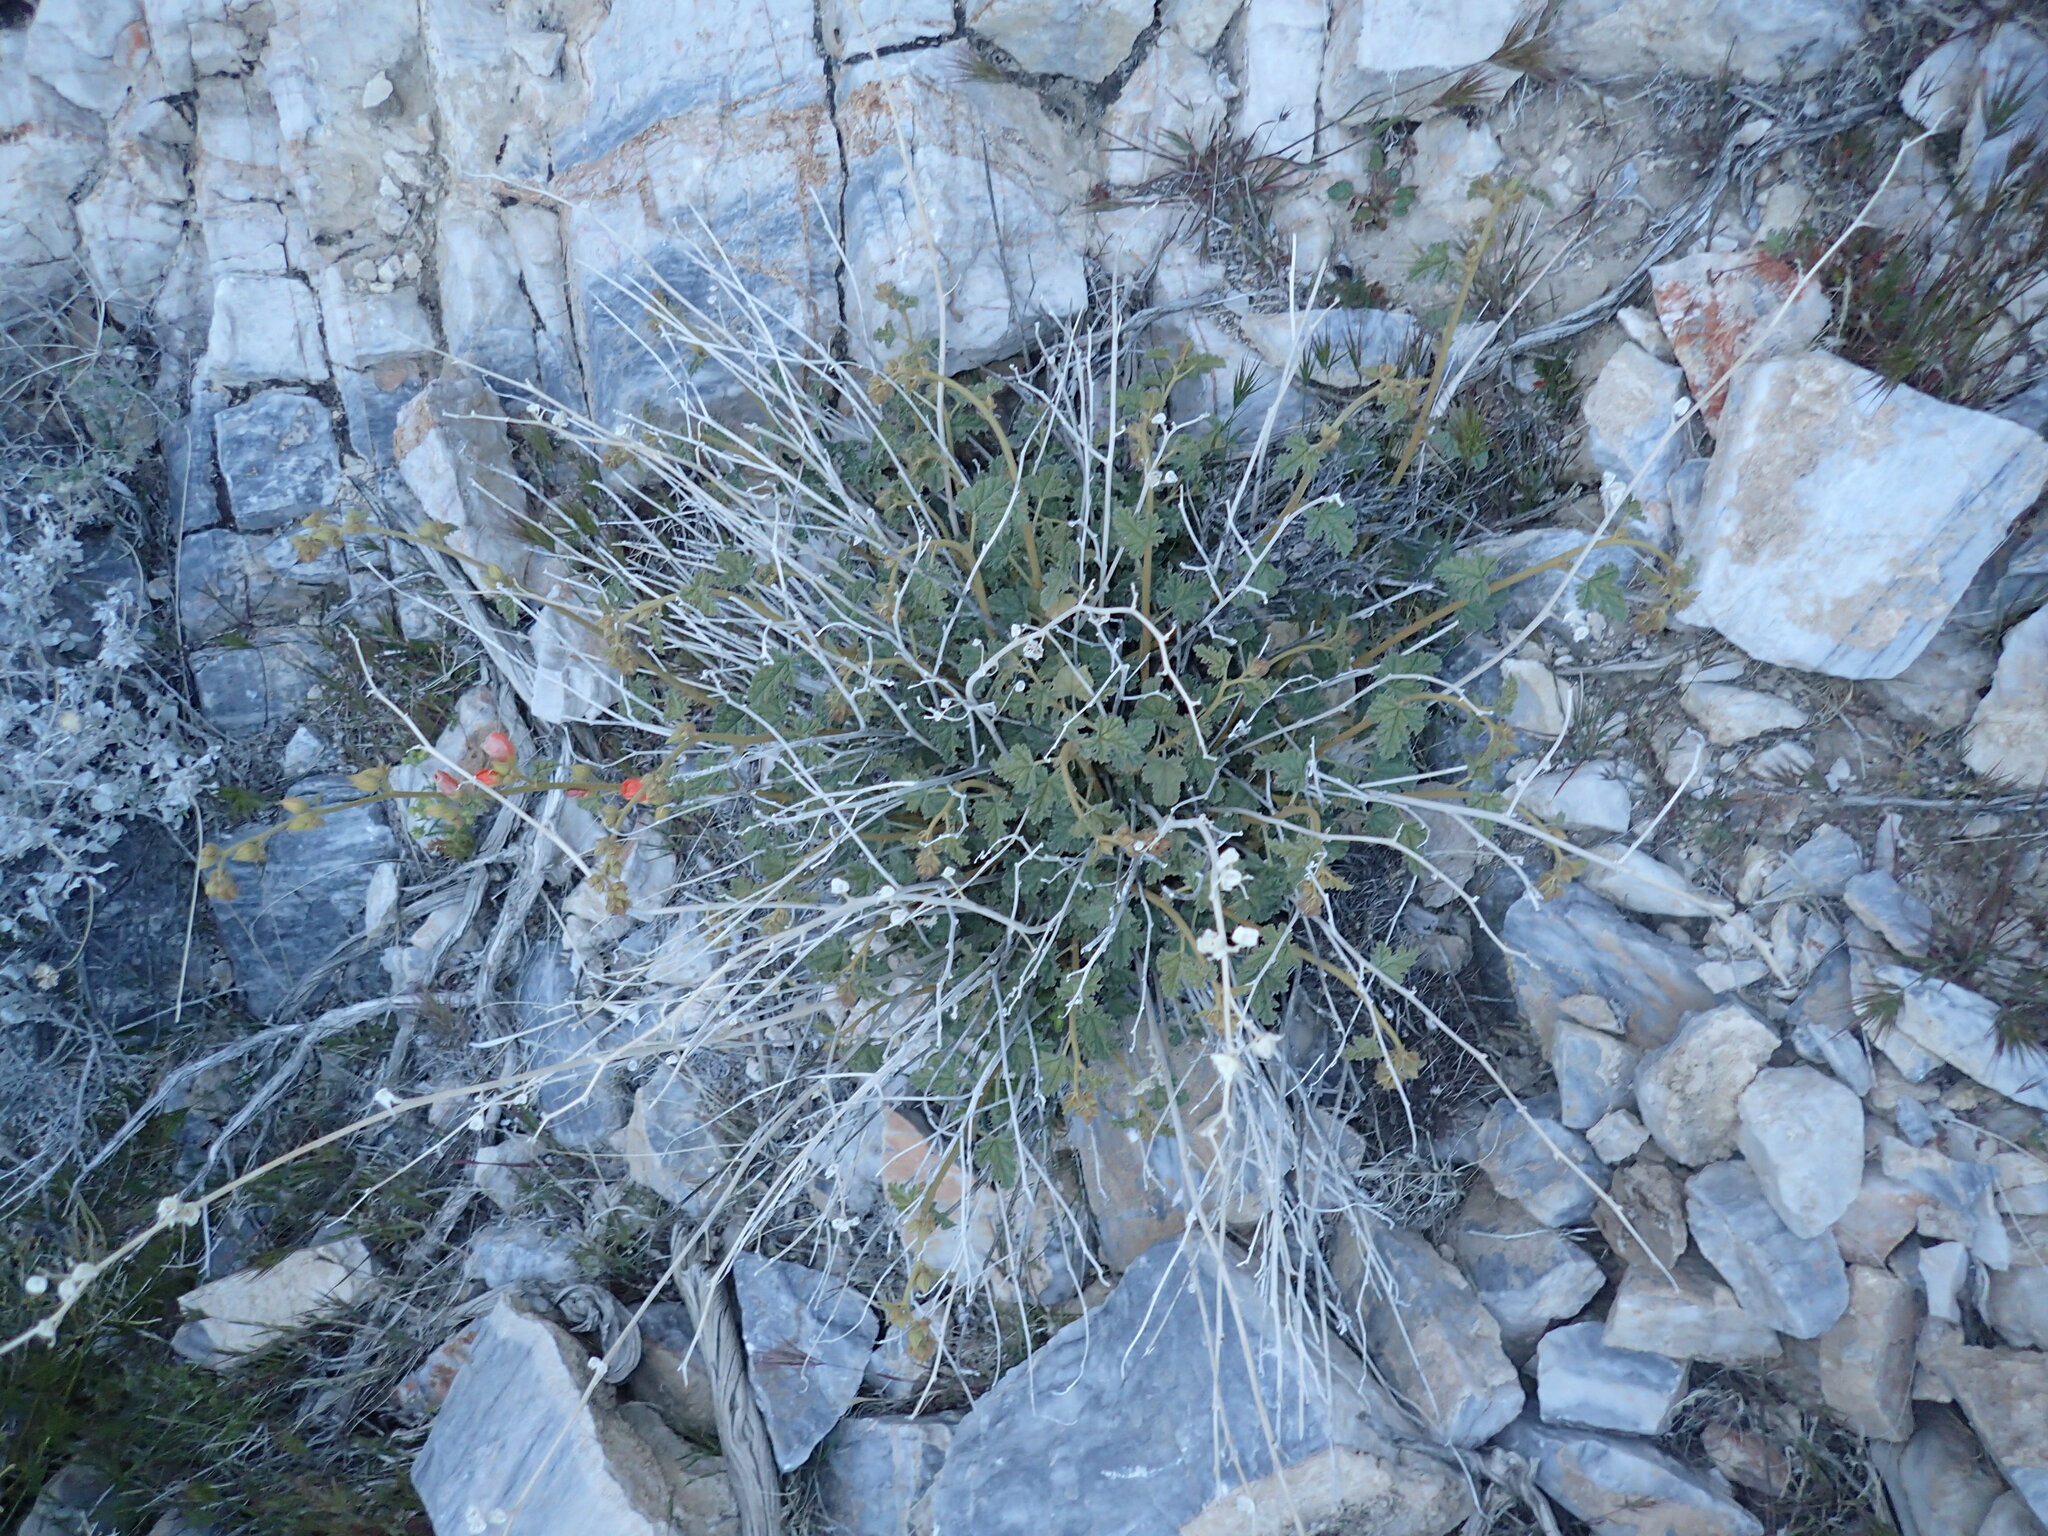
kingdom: Plantae
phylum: Tracheophyta
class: Magnoliopsida
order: Malvales
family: Malvaceae
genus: Sphaeralcea
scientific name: Sphaeralcea ambigua
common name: Apricot globe-mallow
